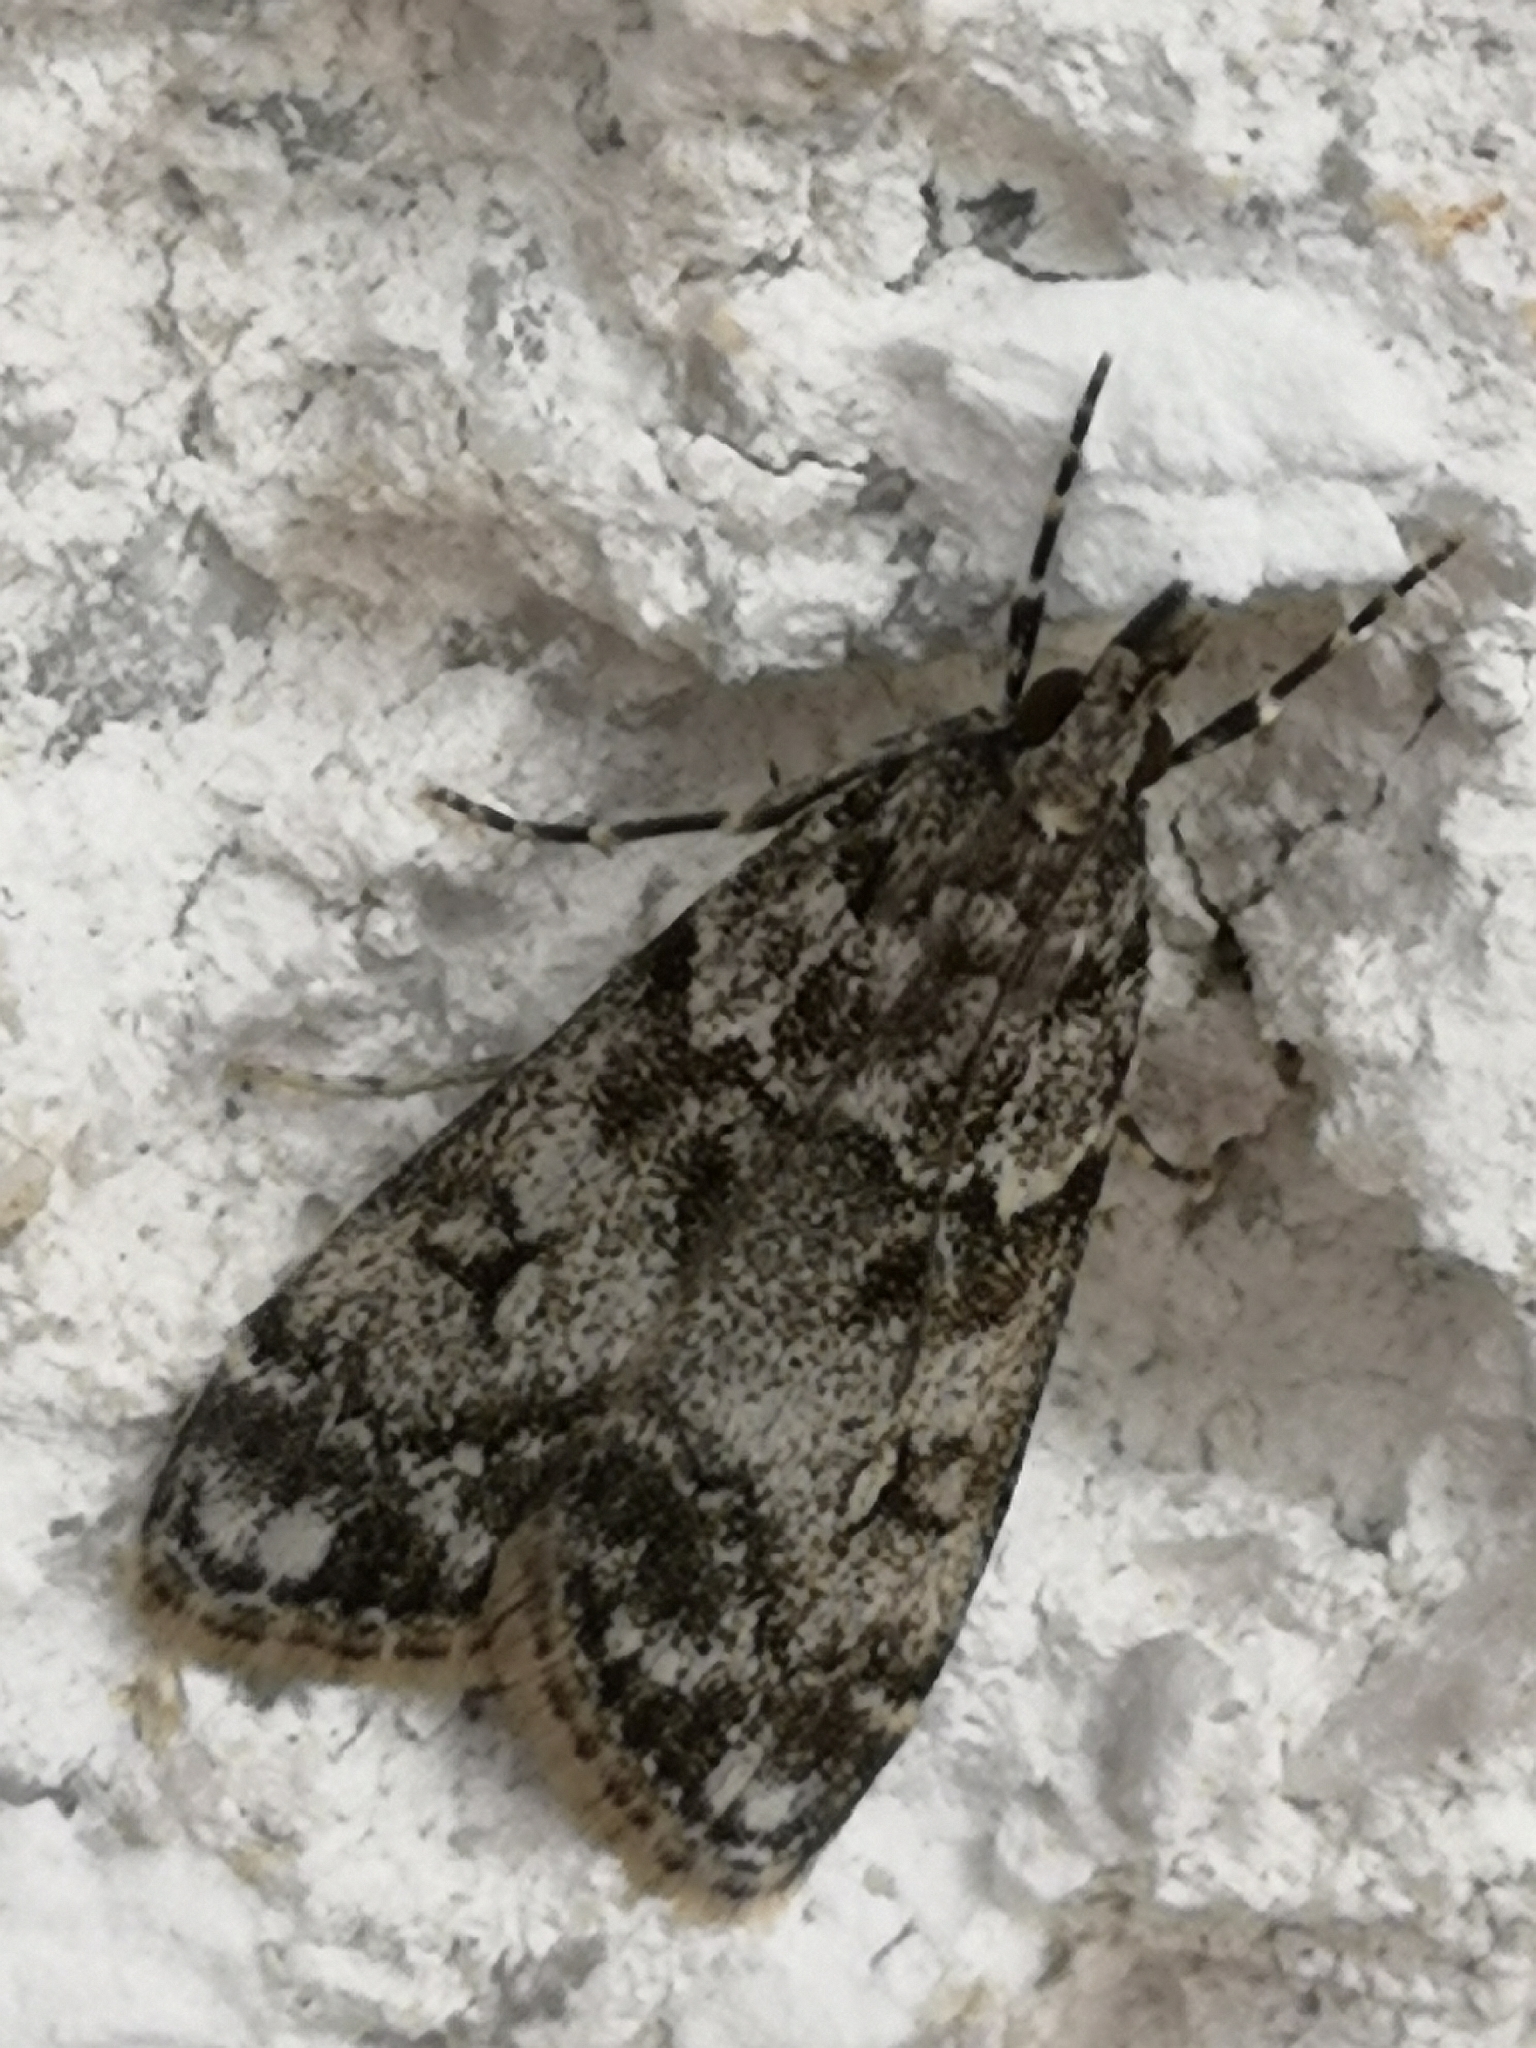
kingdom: Animalia
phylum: Arthropoda
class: Insecta
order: Lepidoptera
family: Crambidae
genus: Eudonia
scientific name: Eudonia lacustrata
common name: Little grey
